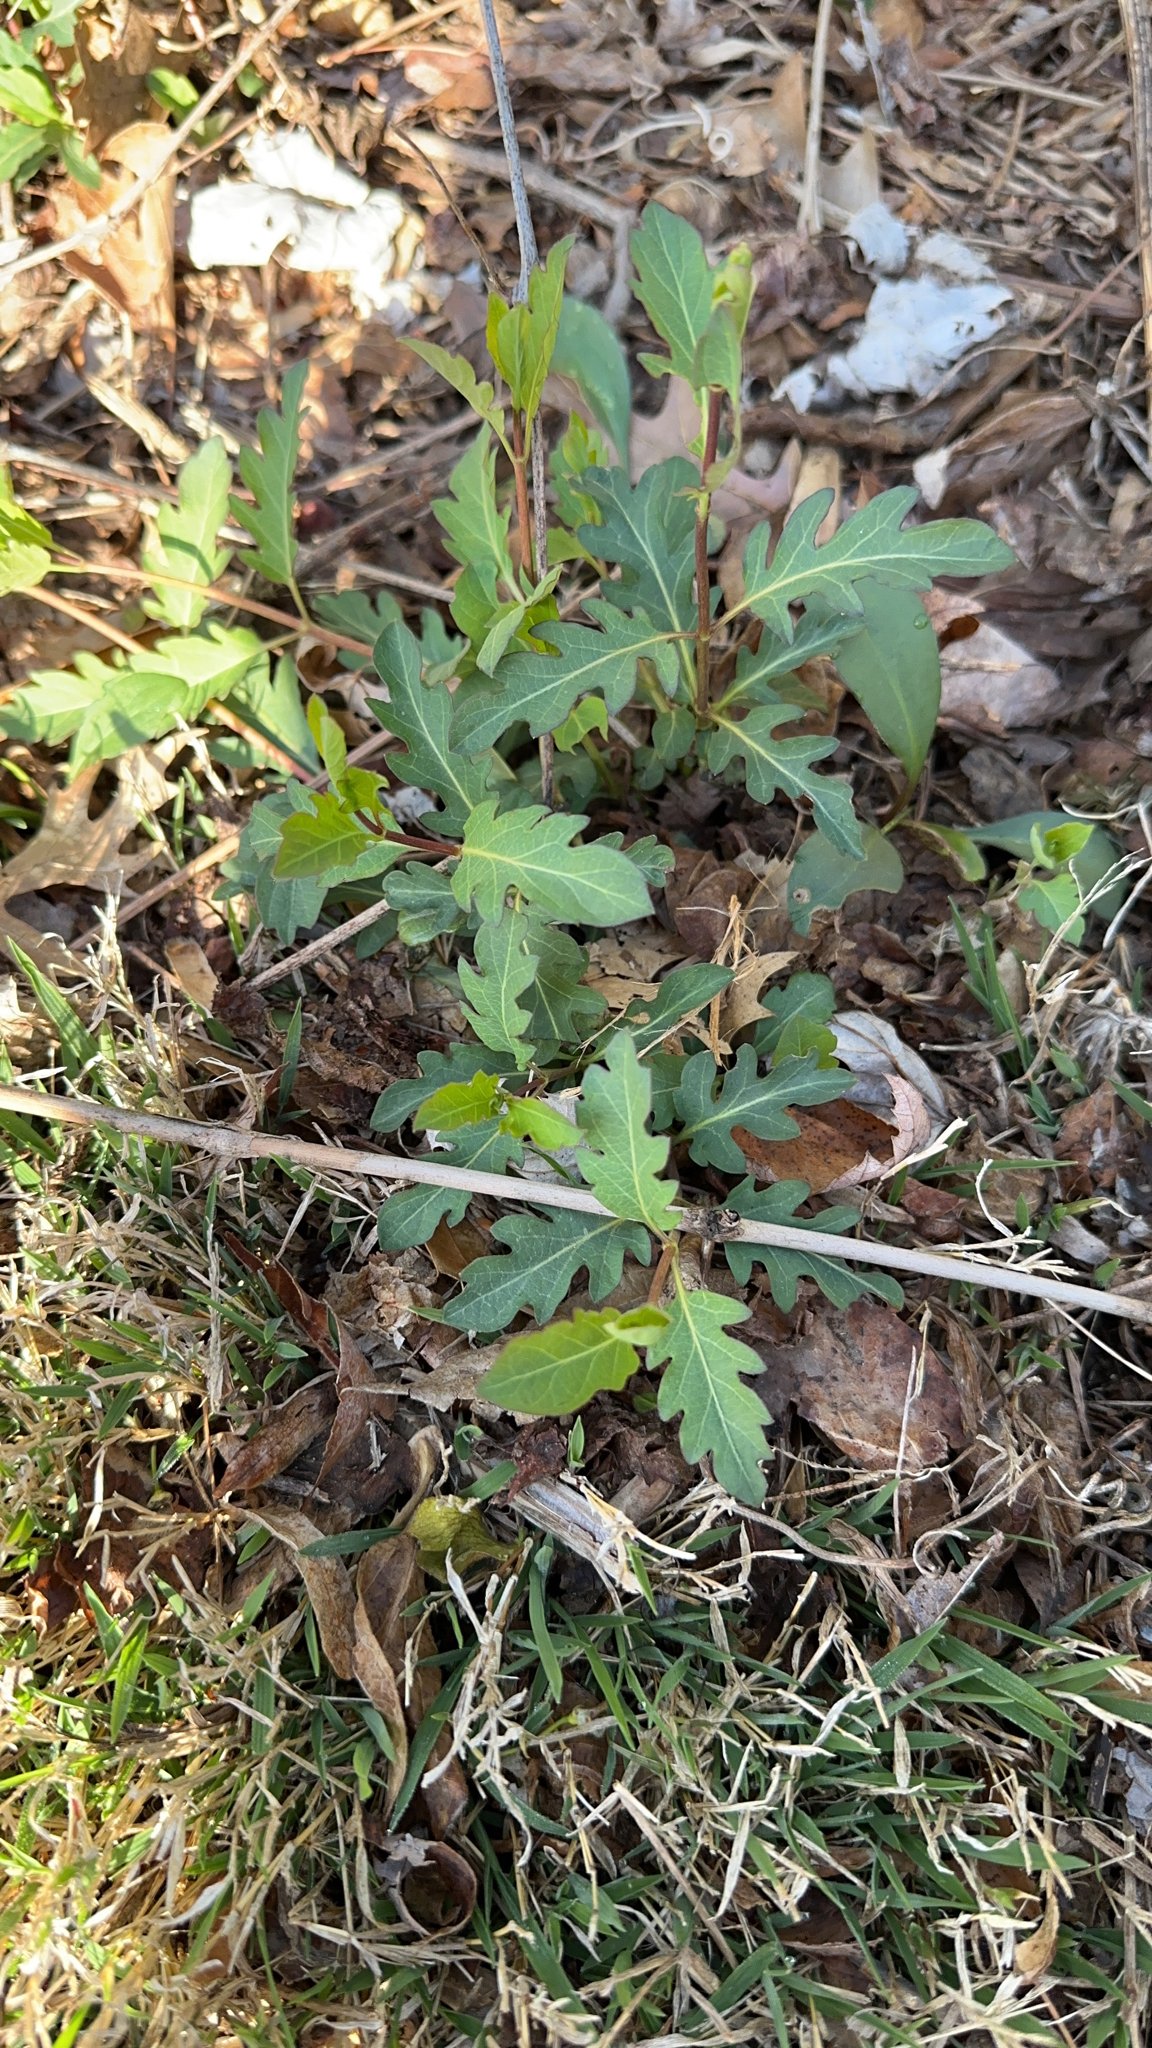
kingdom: Plantae
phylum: Tracheophyta
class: Magnoliopsida
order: Dipsacales
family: Caprifoliaceae
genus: Lonicera
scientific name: Lonicera japonica
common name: Japanese honeysuckle
